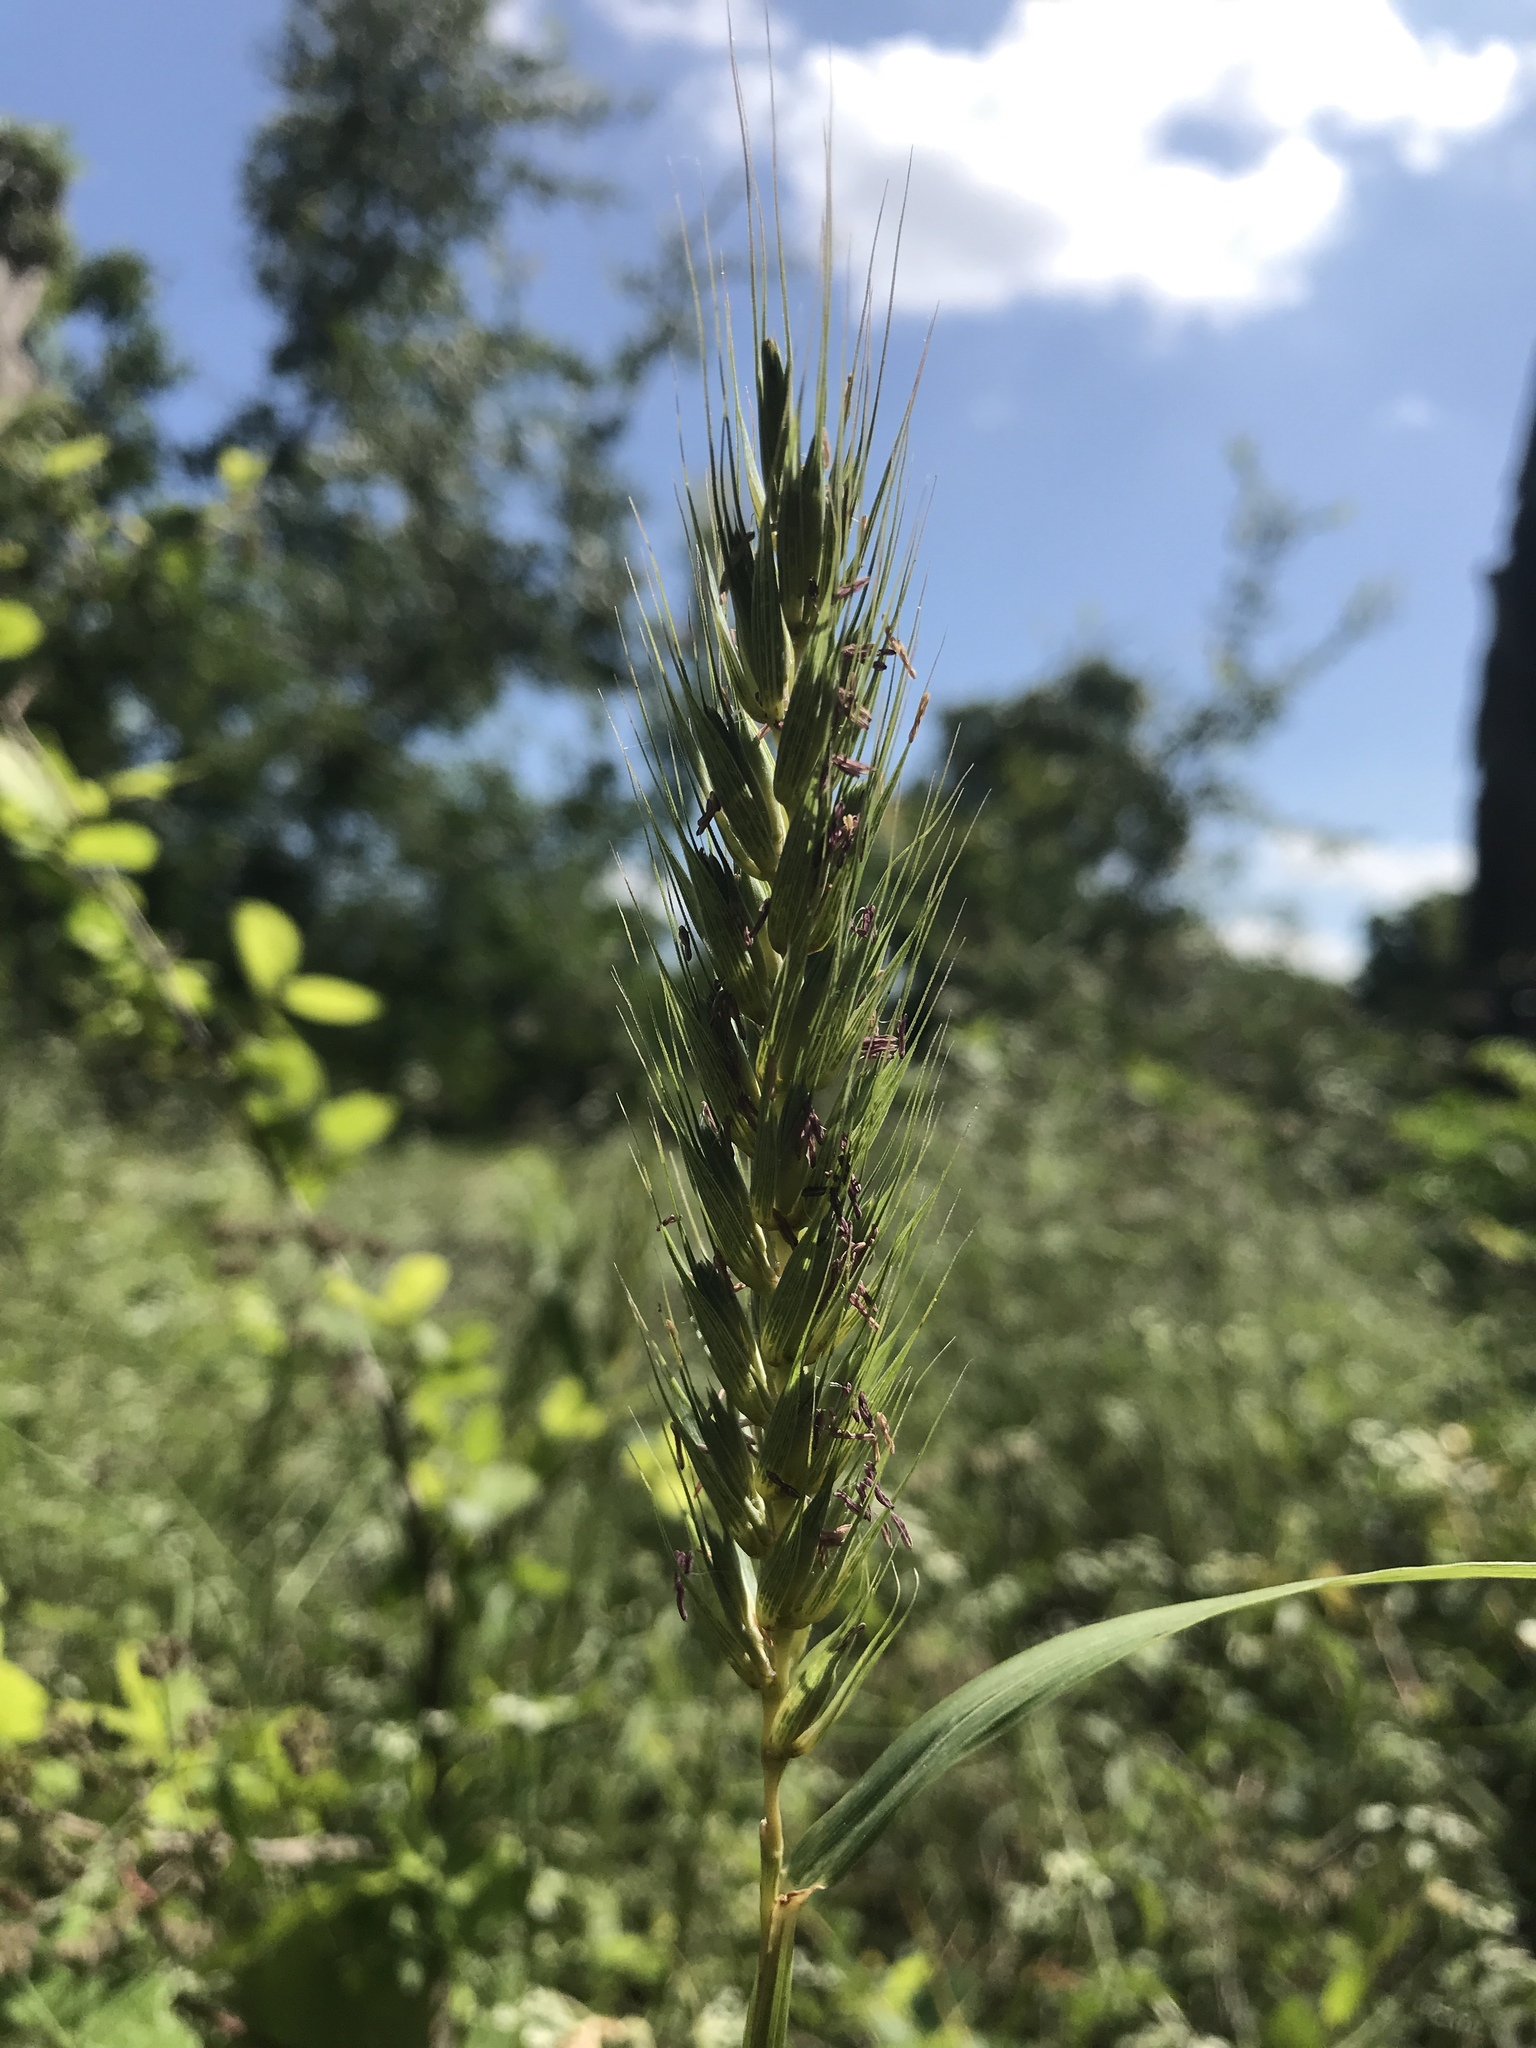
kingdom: Plantae
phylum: Tracheophyta
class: Liliopsida
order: Poales
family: Poaceae
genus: Elymus
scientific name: Elymus virginicus
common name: Common eastern wildrye
